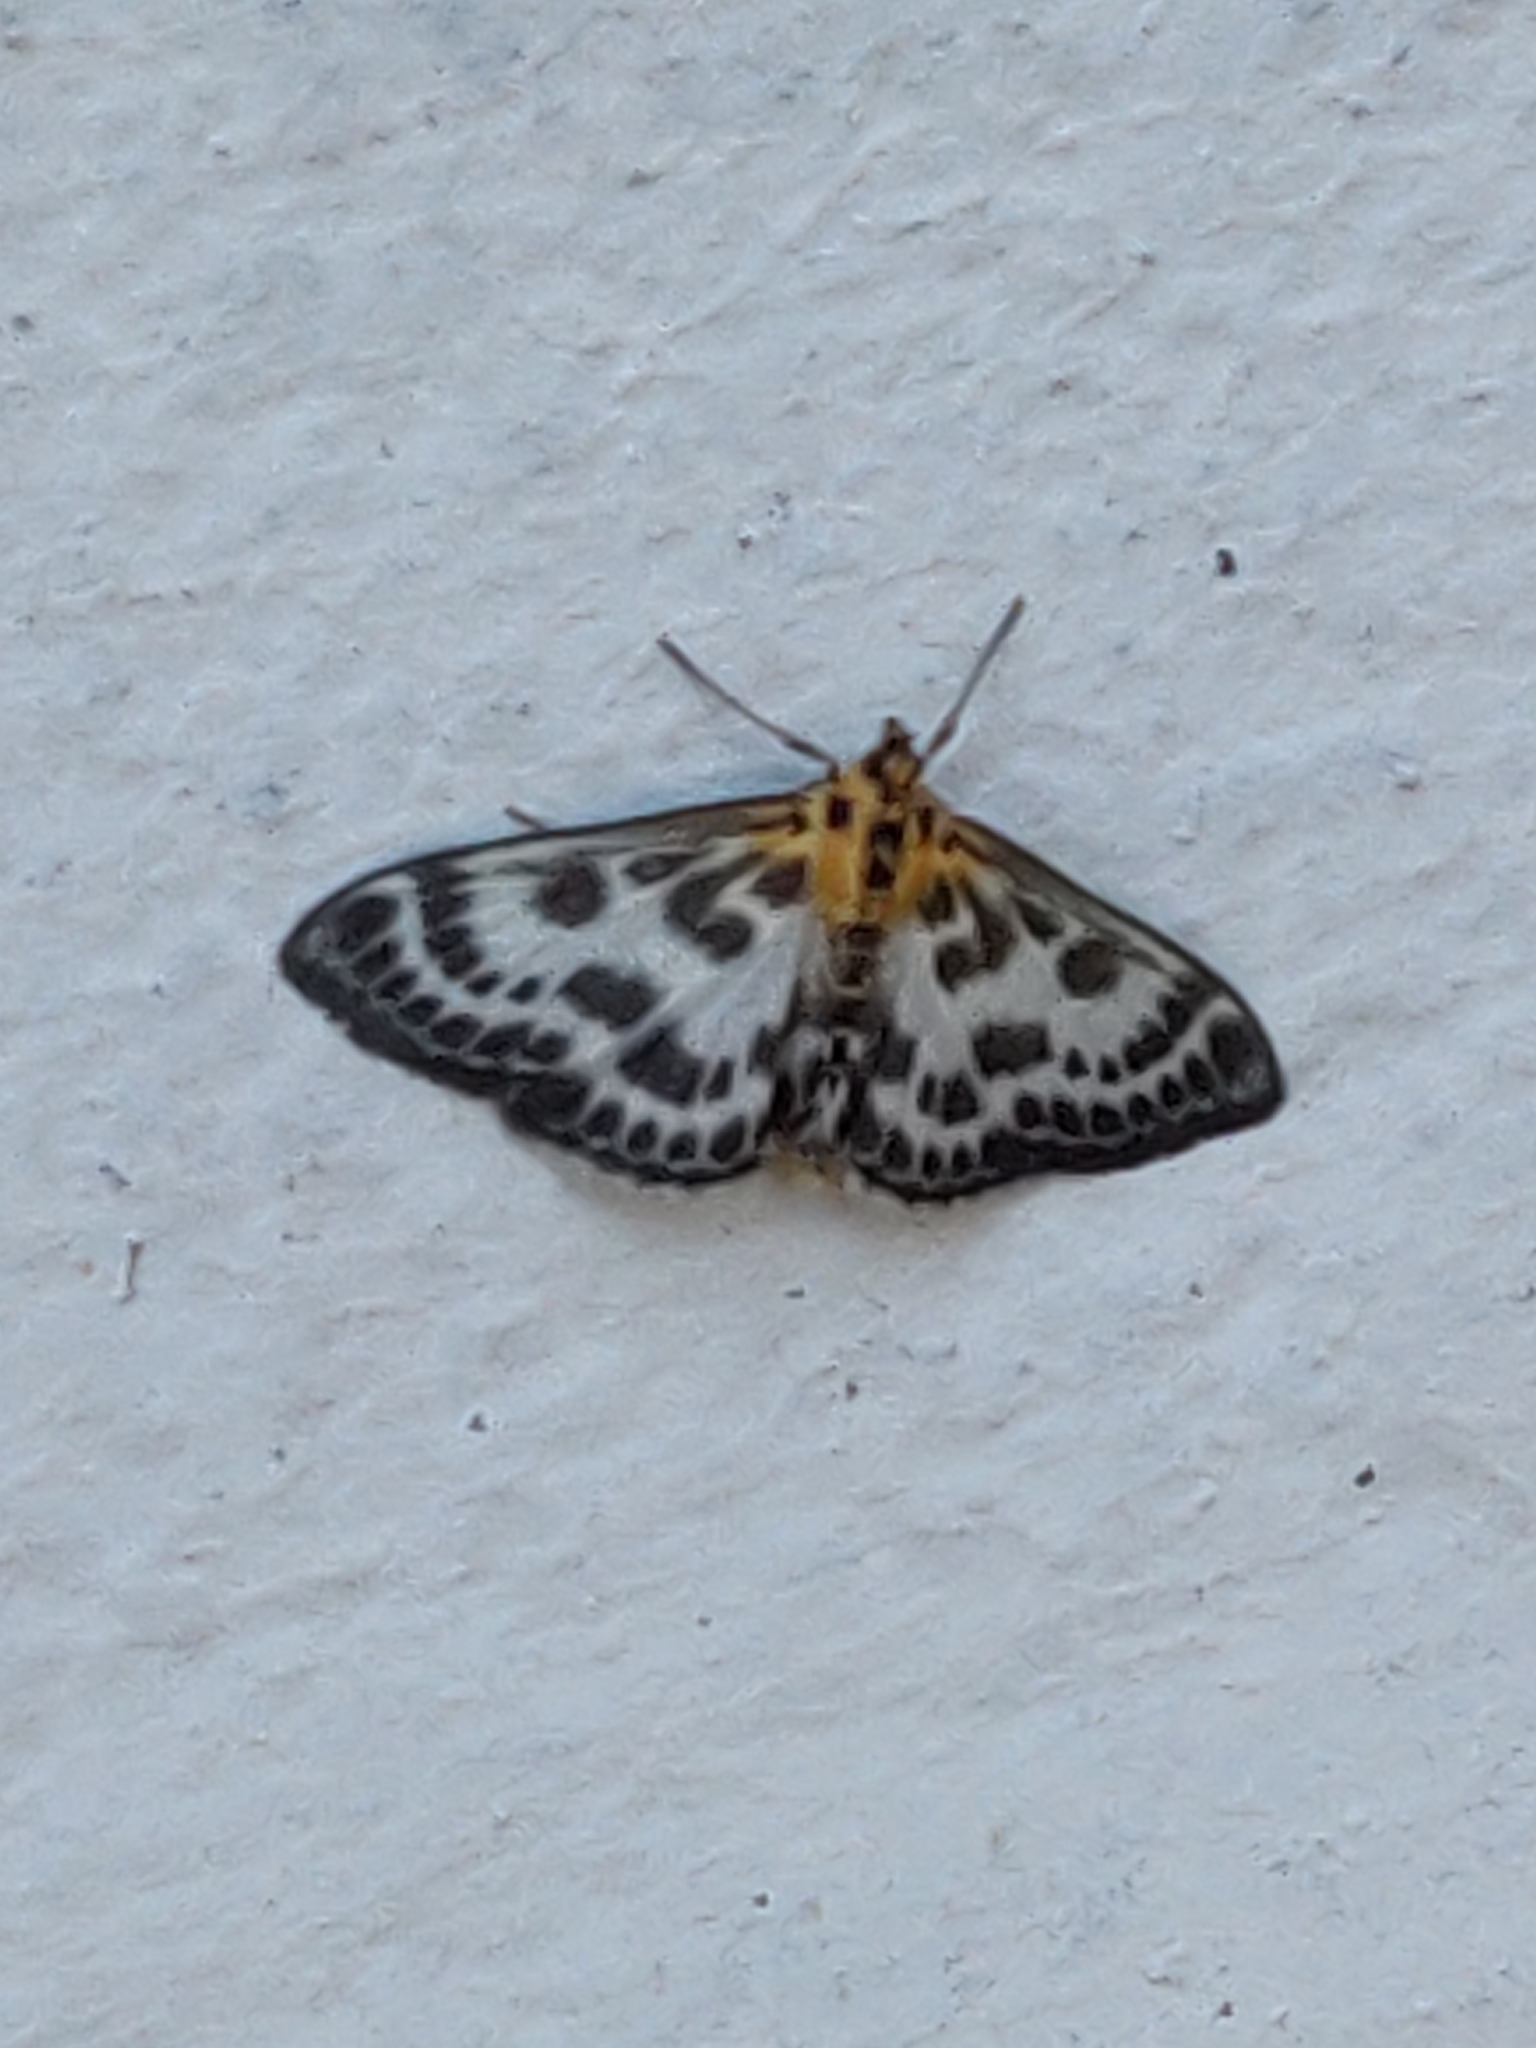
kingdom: Animalia
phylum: Arthropoda
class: Insecta
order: Lepidoptera
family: Crambidae
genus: Anania
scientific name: Anania hortulata
